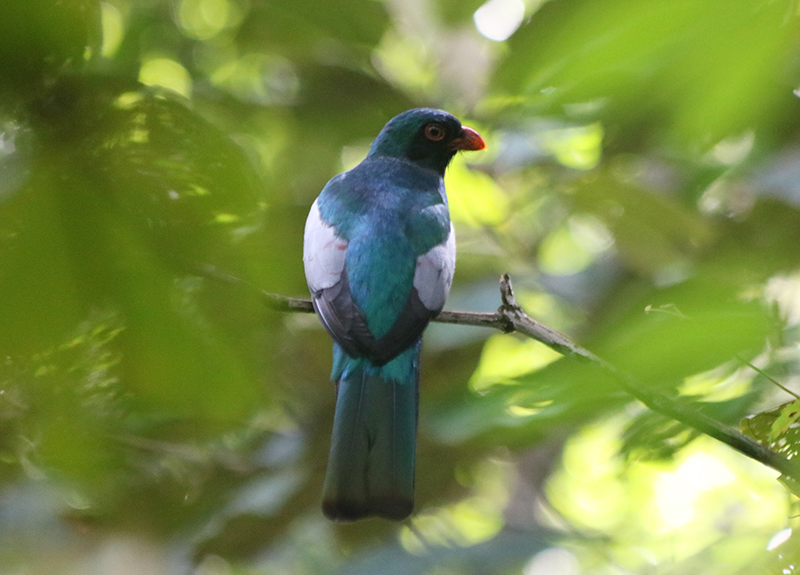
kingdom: Animalia
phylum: Chordata
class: Aves
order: Trogoniformes
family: Trogonidae
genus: Trogon
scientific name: Trogon massena
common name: Slaty-tailed trogon
